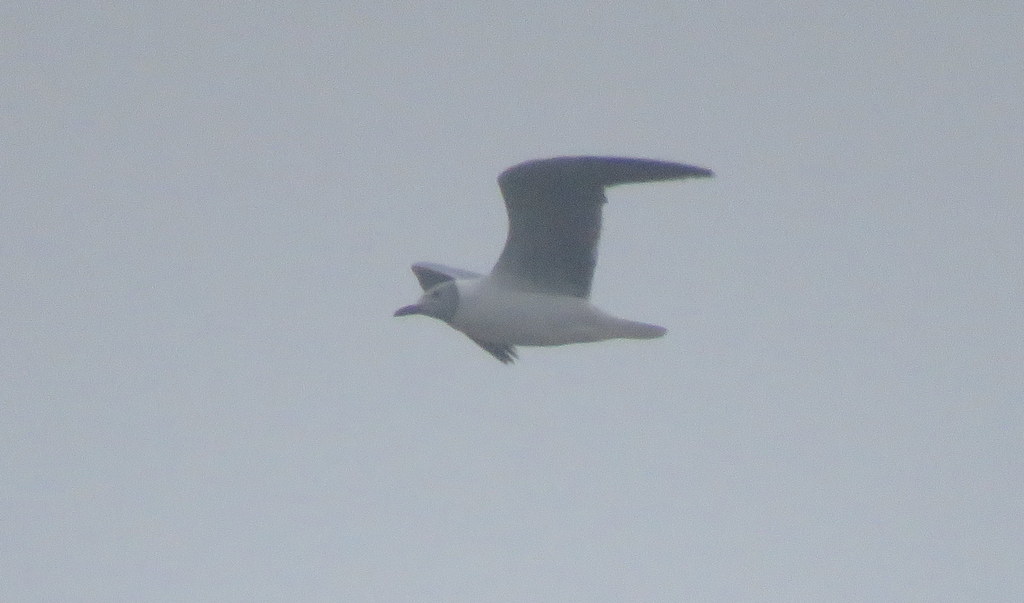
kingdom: Animalia
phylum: Chordata
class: Aves
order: Charadriiformes
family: Laridae
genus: Chroicocephalus
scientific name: Chroicocephalus cirrocephalus
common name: Grey-headed gull
